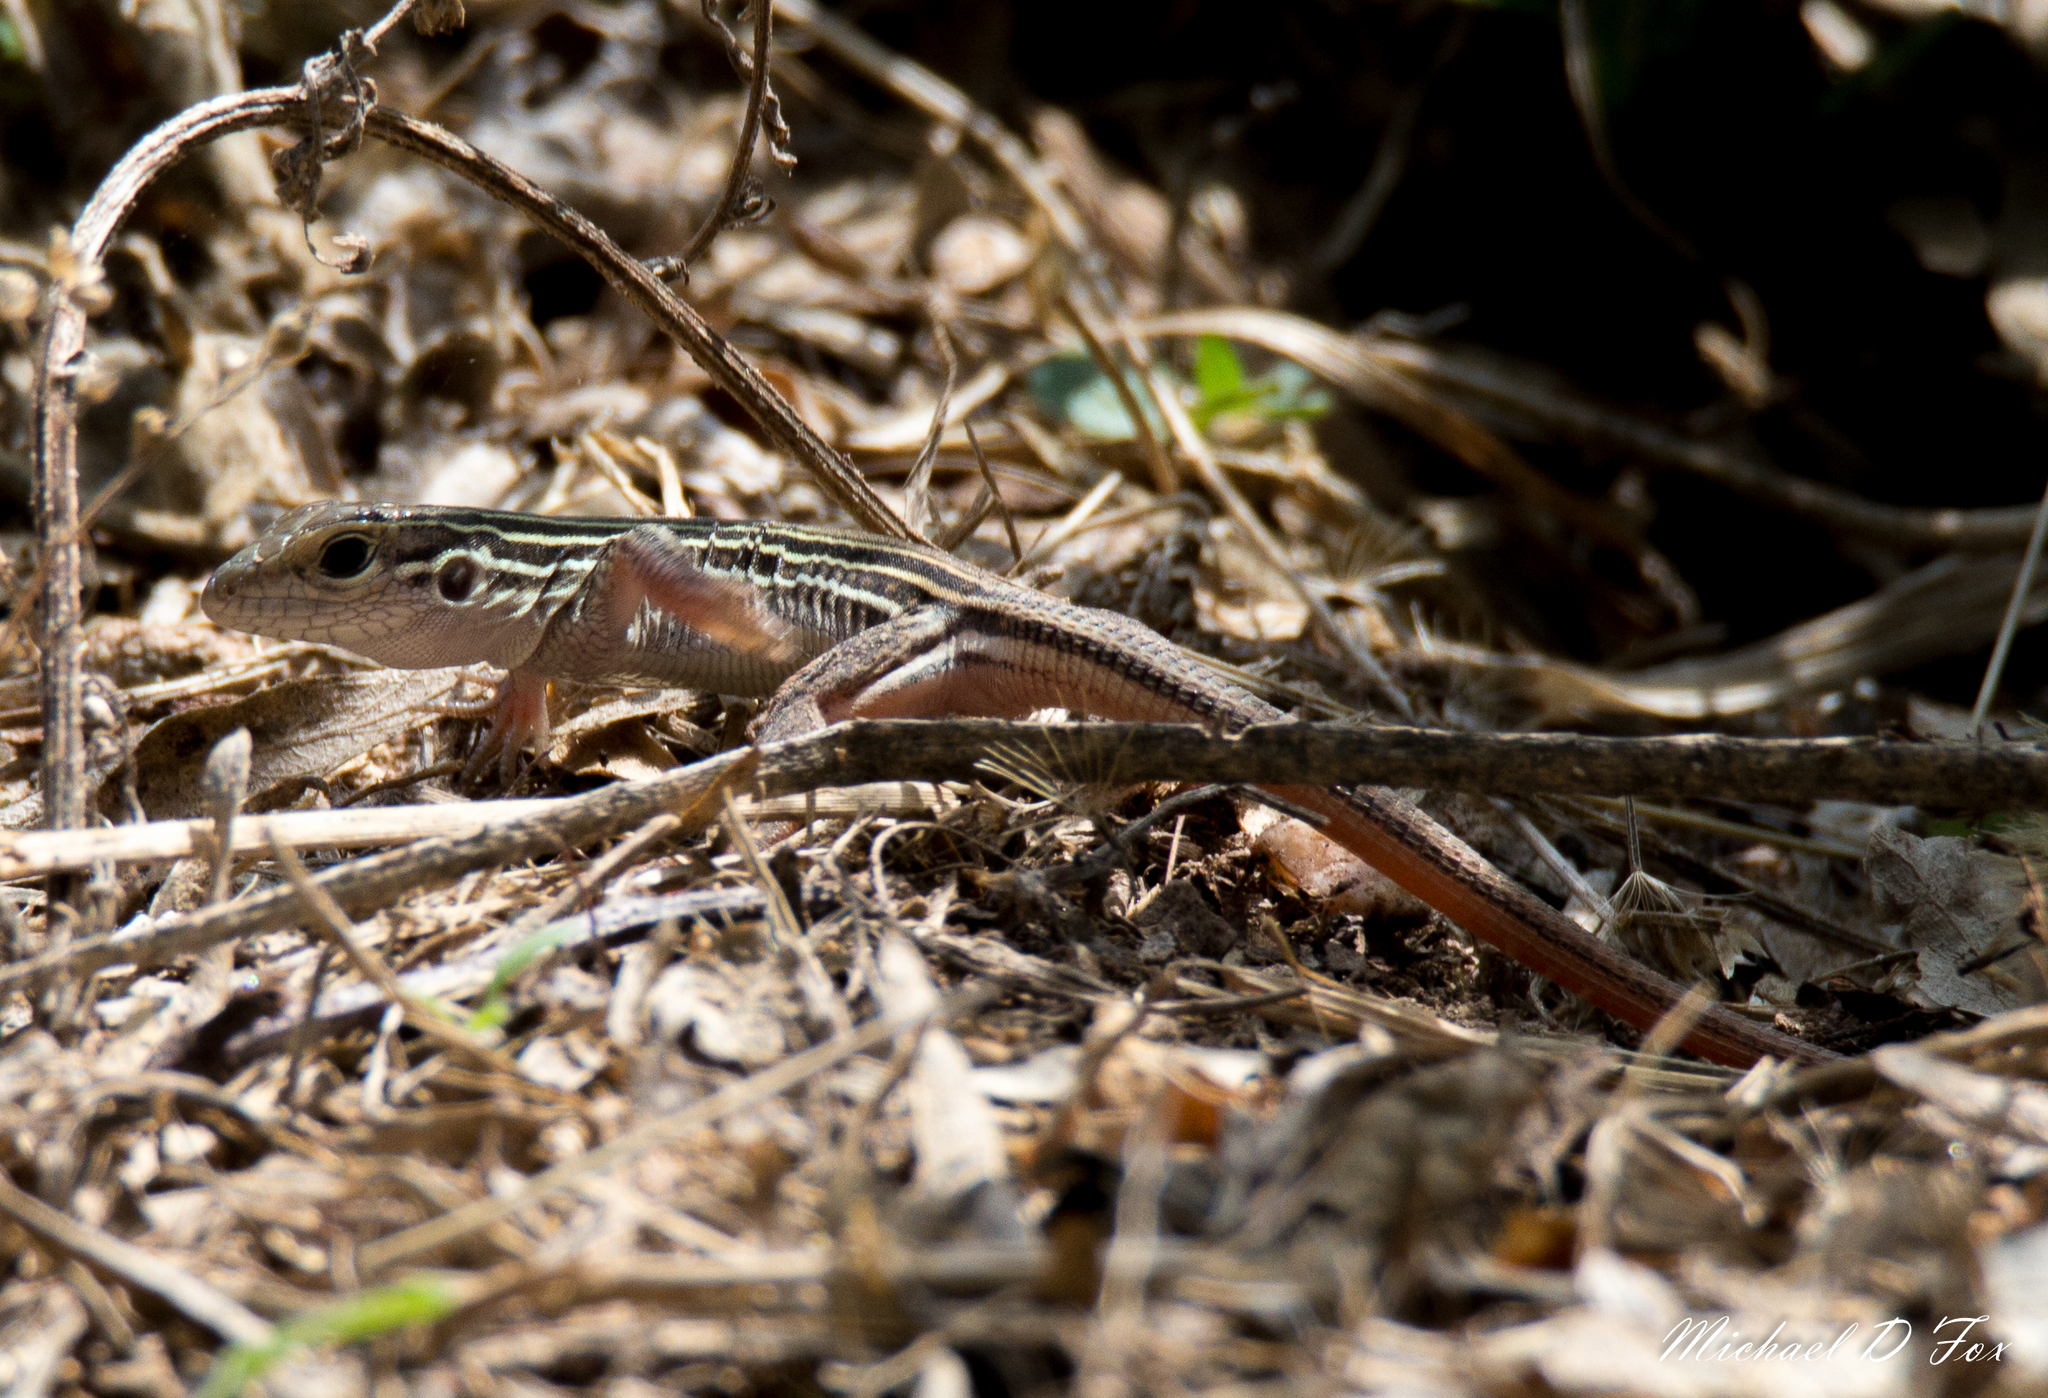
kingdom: Animalia
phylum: Chordata
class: Squamata
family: Teiidae
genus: Aspidoscelis
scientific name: Aspidoscelis gularis
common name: Eastern spotted whiptail
